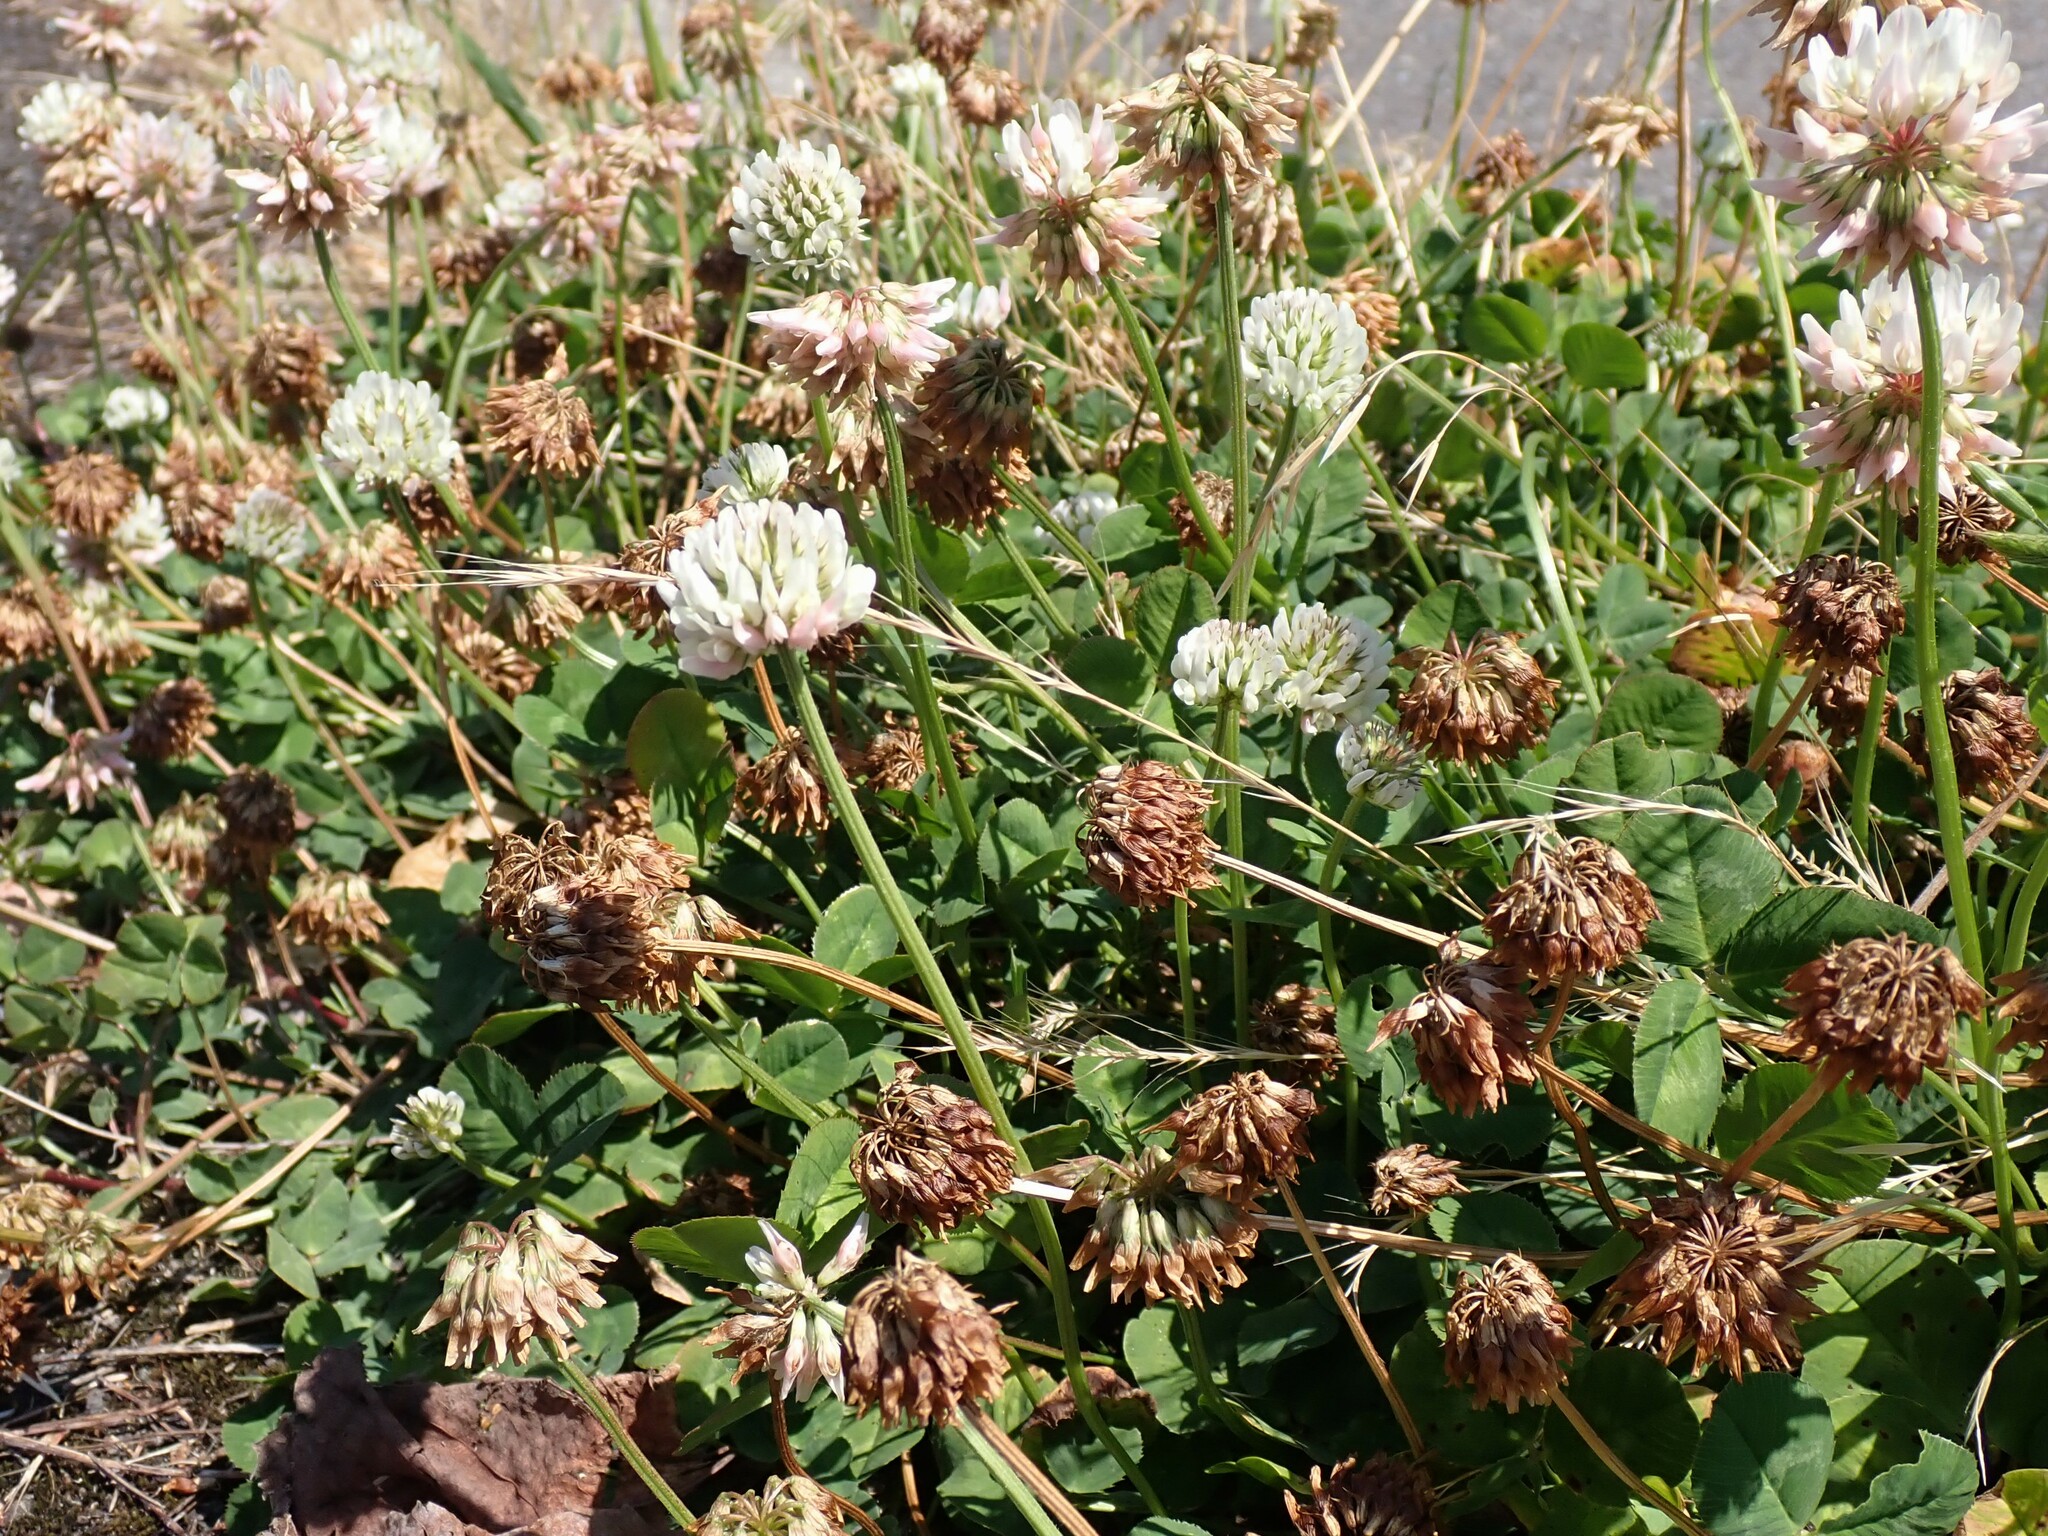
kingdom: Plantae
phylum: Tracheophyta
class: Magnoliopsida
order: Fabales
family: Fabaceae
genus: Trifolium
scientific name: Trifolium repens
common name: White clover
